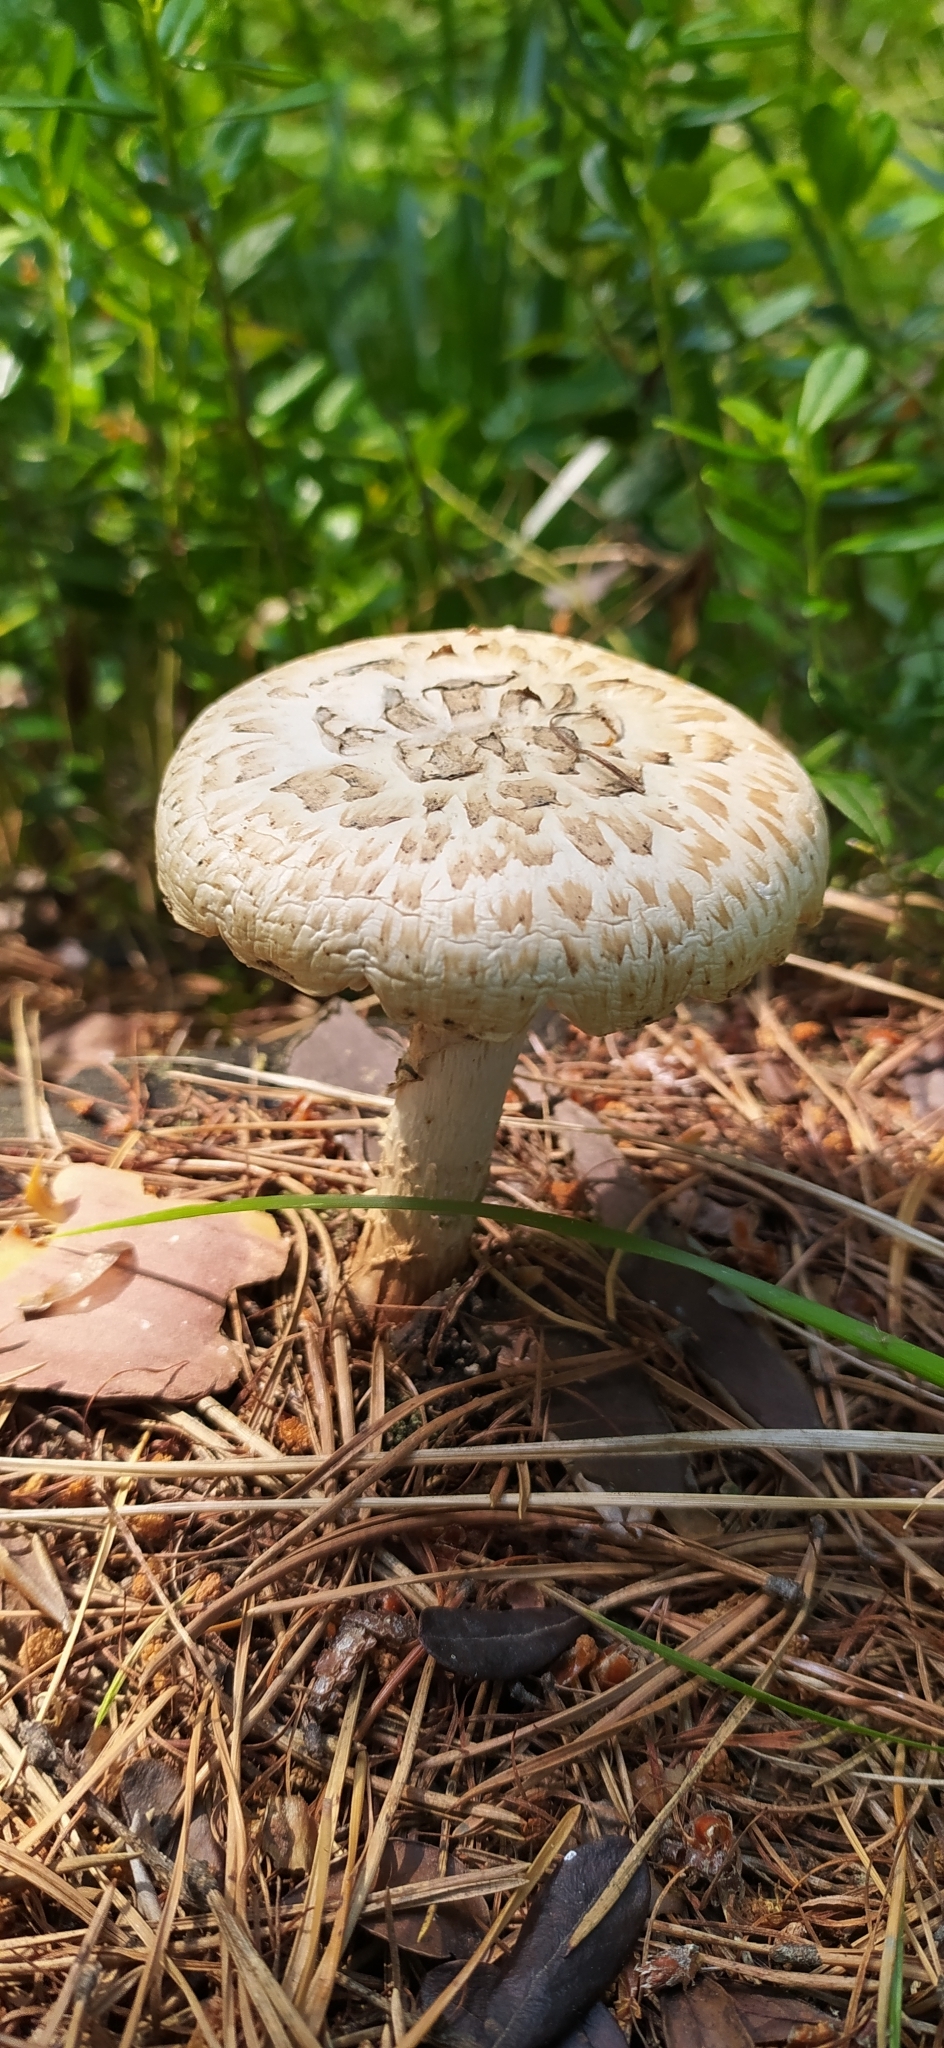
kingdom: Fungi
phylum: Basidiomycota
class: Agaricomycetes
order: Gloeophyllales
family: Gloeophyllaceae
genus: Neolentinus
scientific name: Neolentinus lepideus
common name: Scaly sawgill
